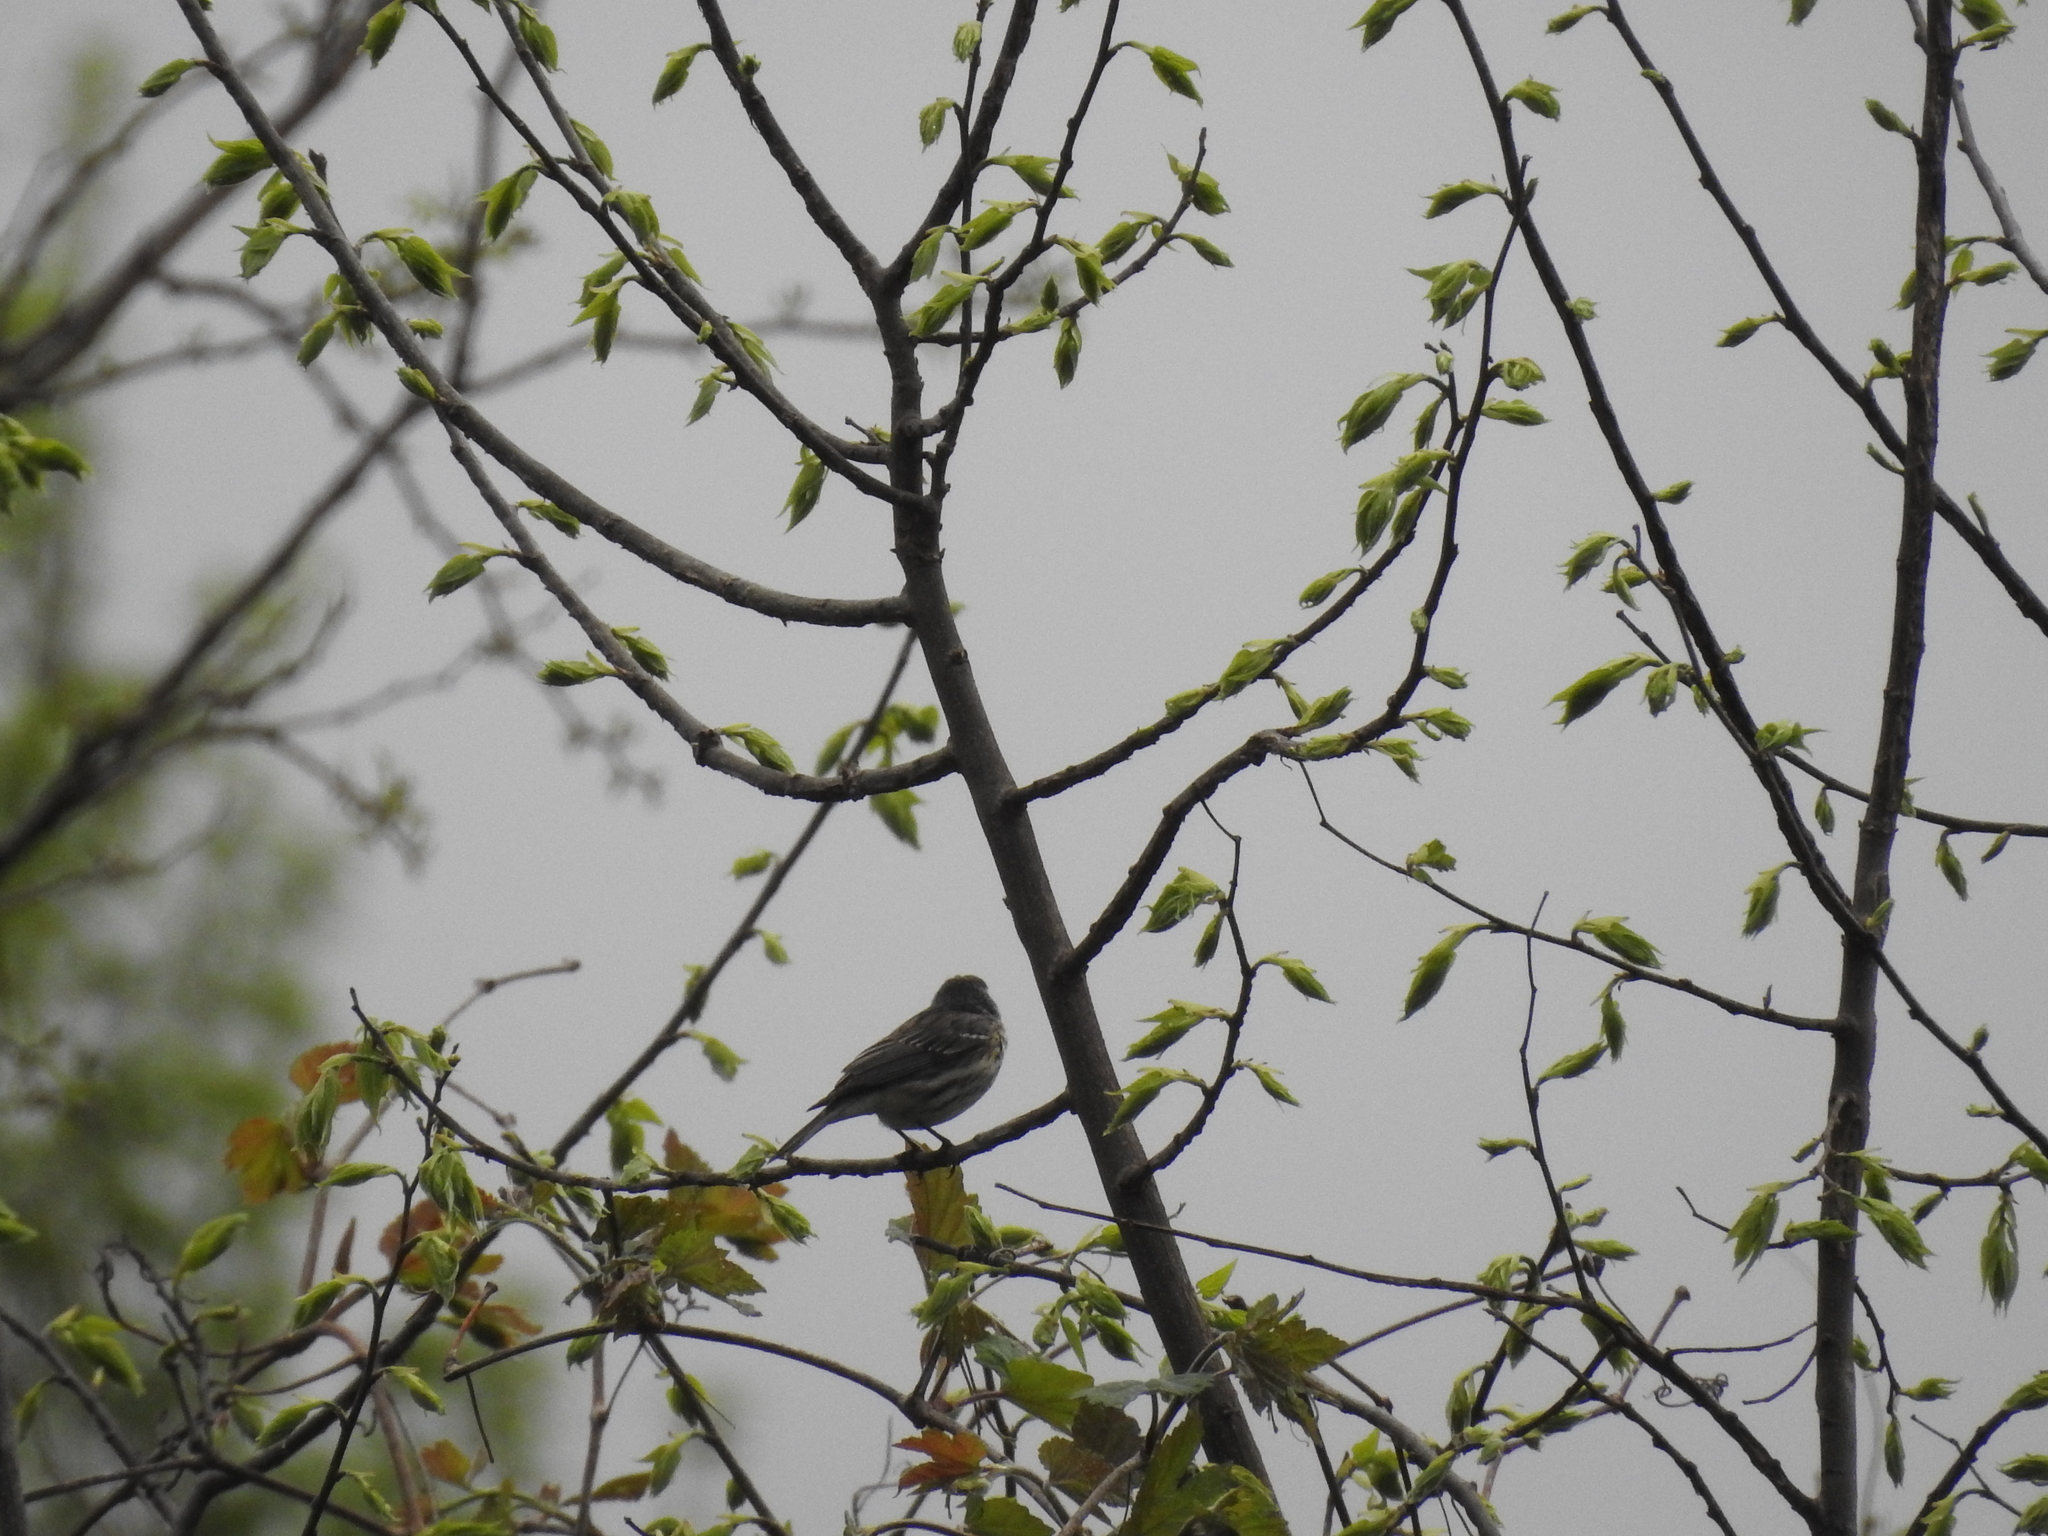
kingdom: Animalia
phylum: Chordata
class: Aves
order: Passeriformes
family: Parulidae
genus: Setophaga
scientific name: Setophaga coronata
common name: Myrtle warbler
